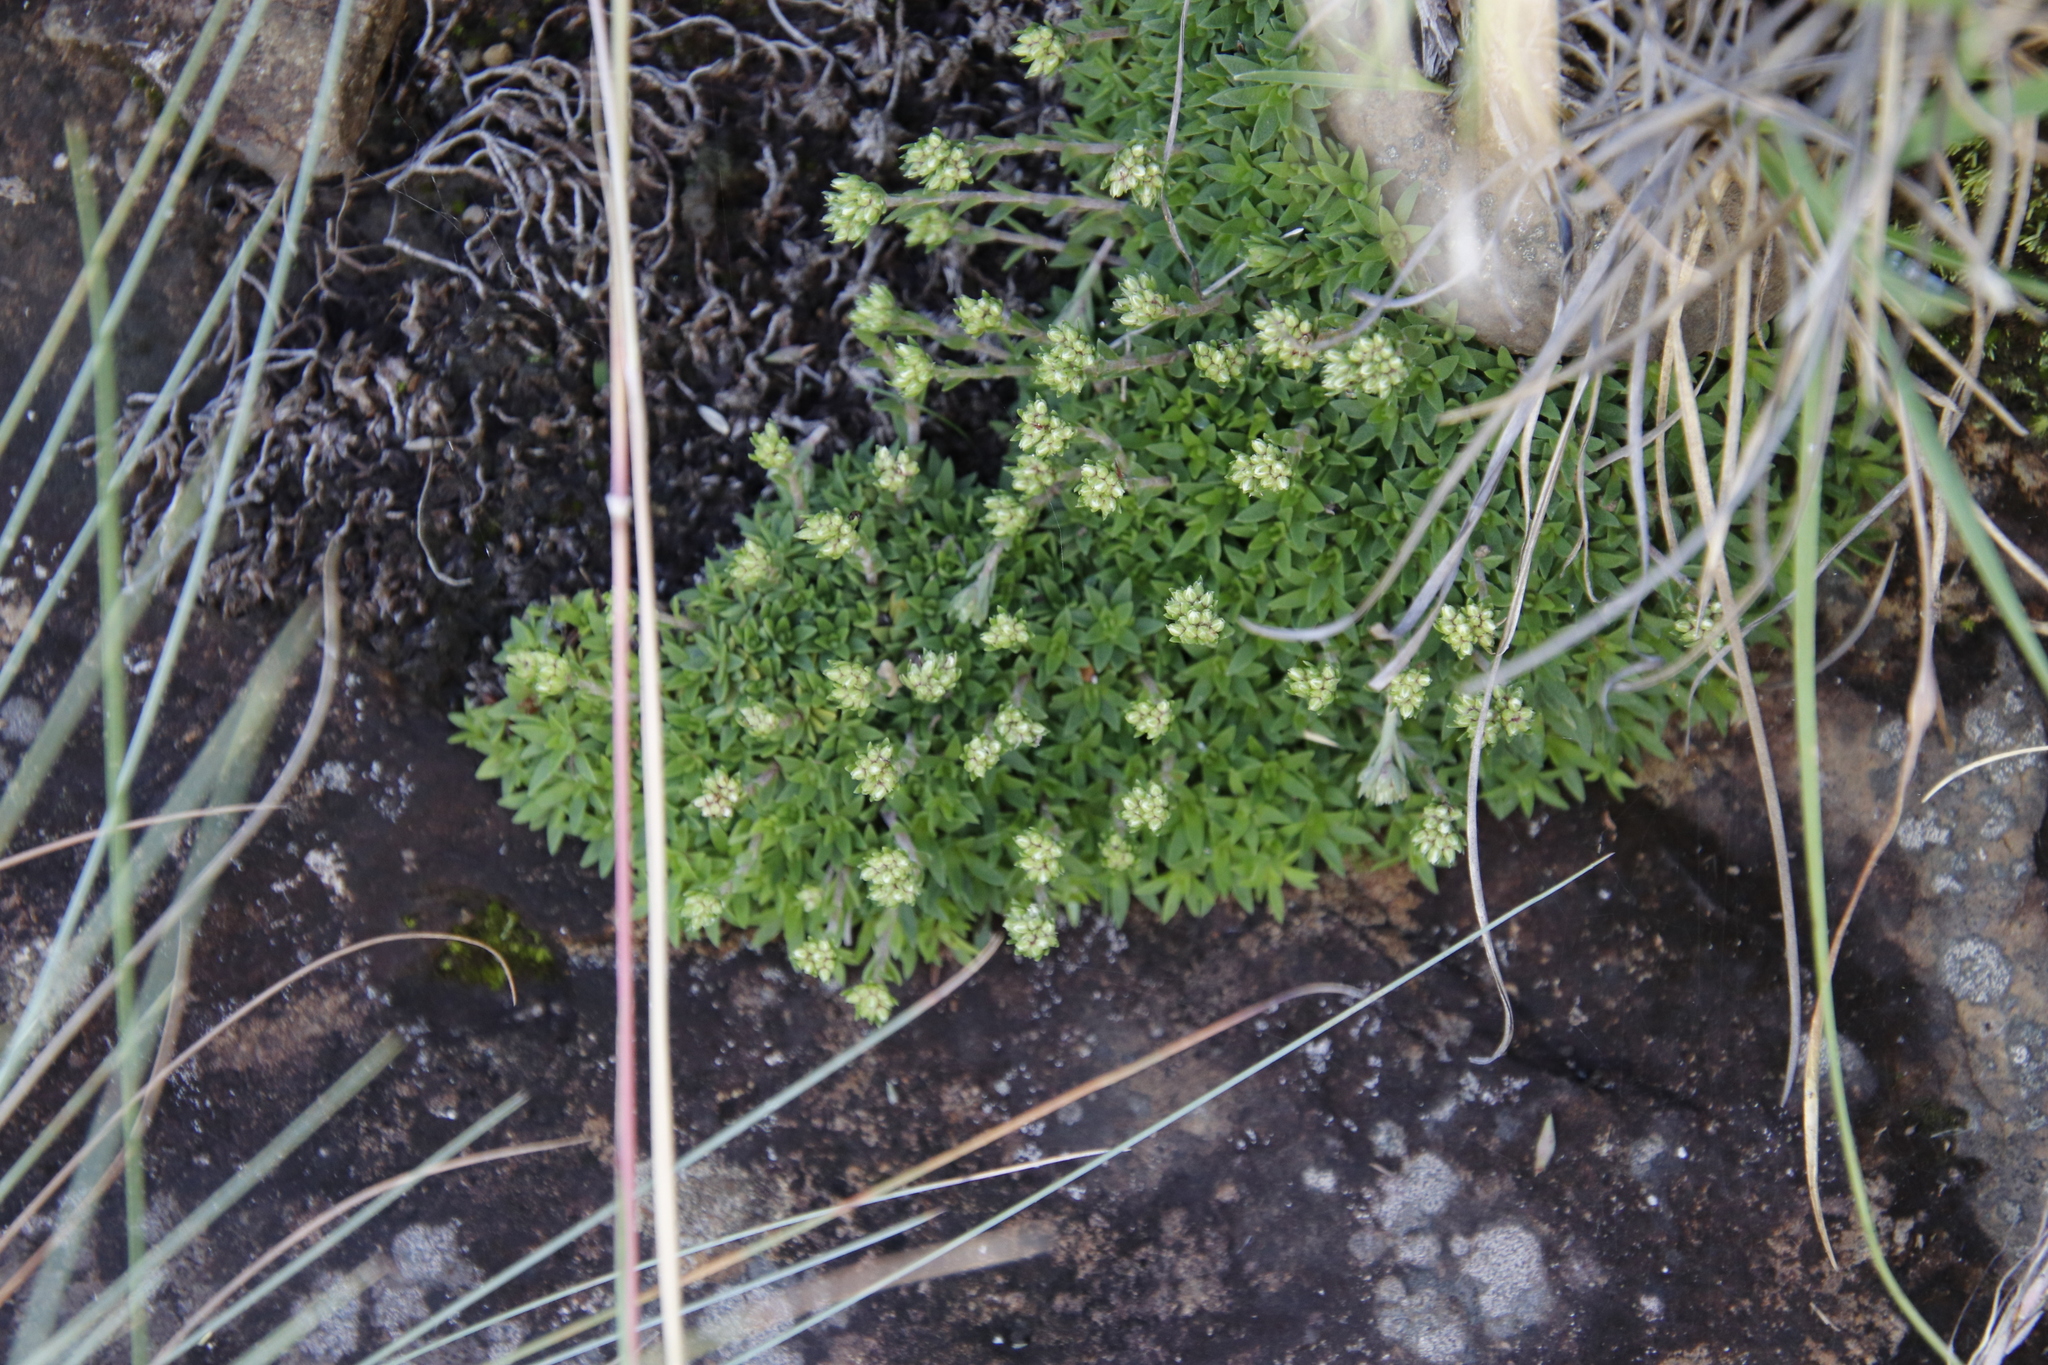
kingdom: Plantae
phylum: Tracheophyta
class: Magnoliopsida
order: Saxifragales
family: Crassulaceae
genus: Crassula
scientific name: Crassula setulosa
